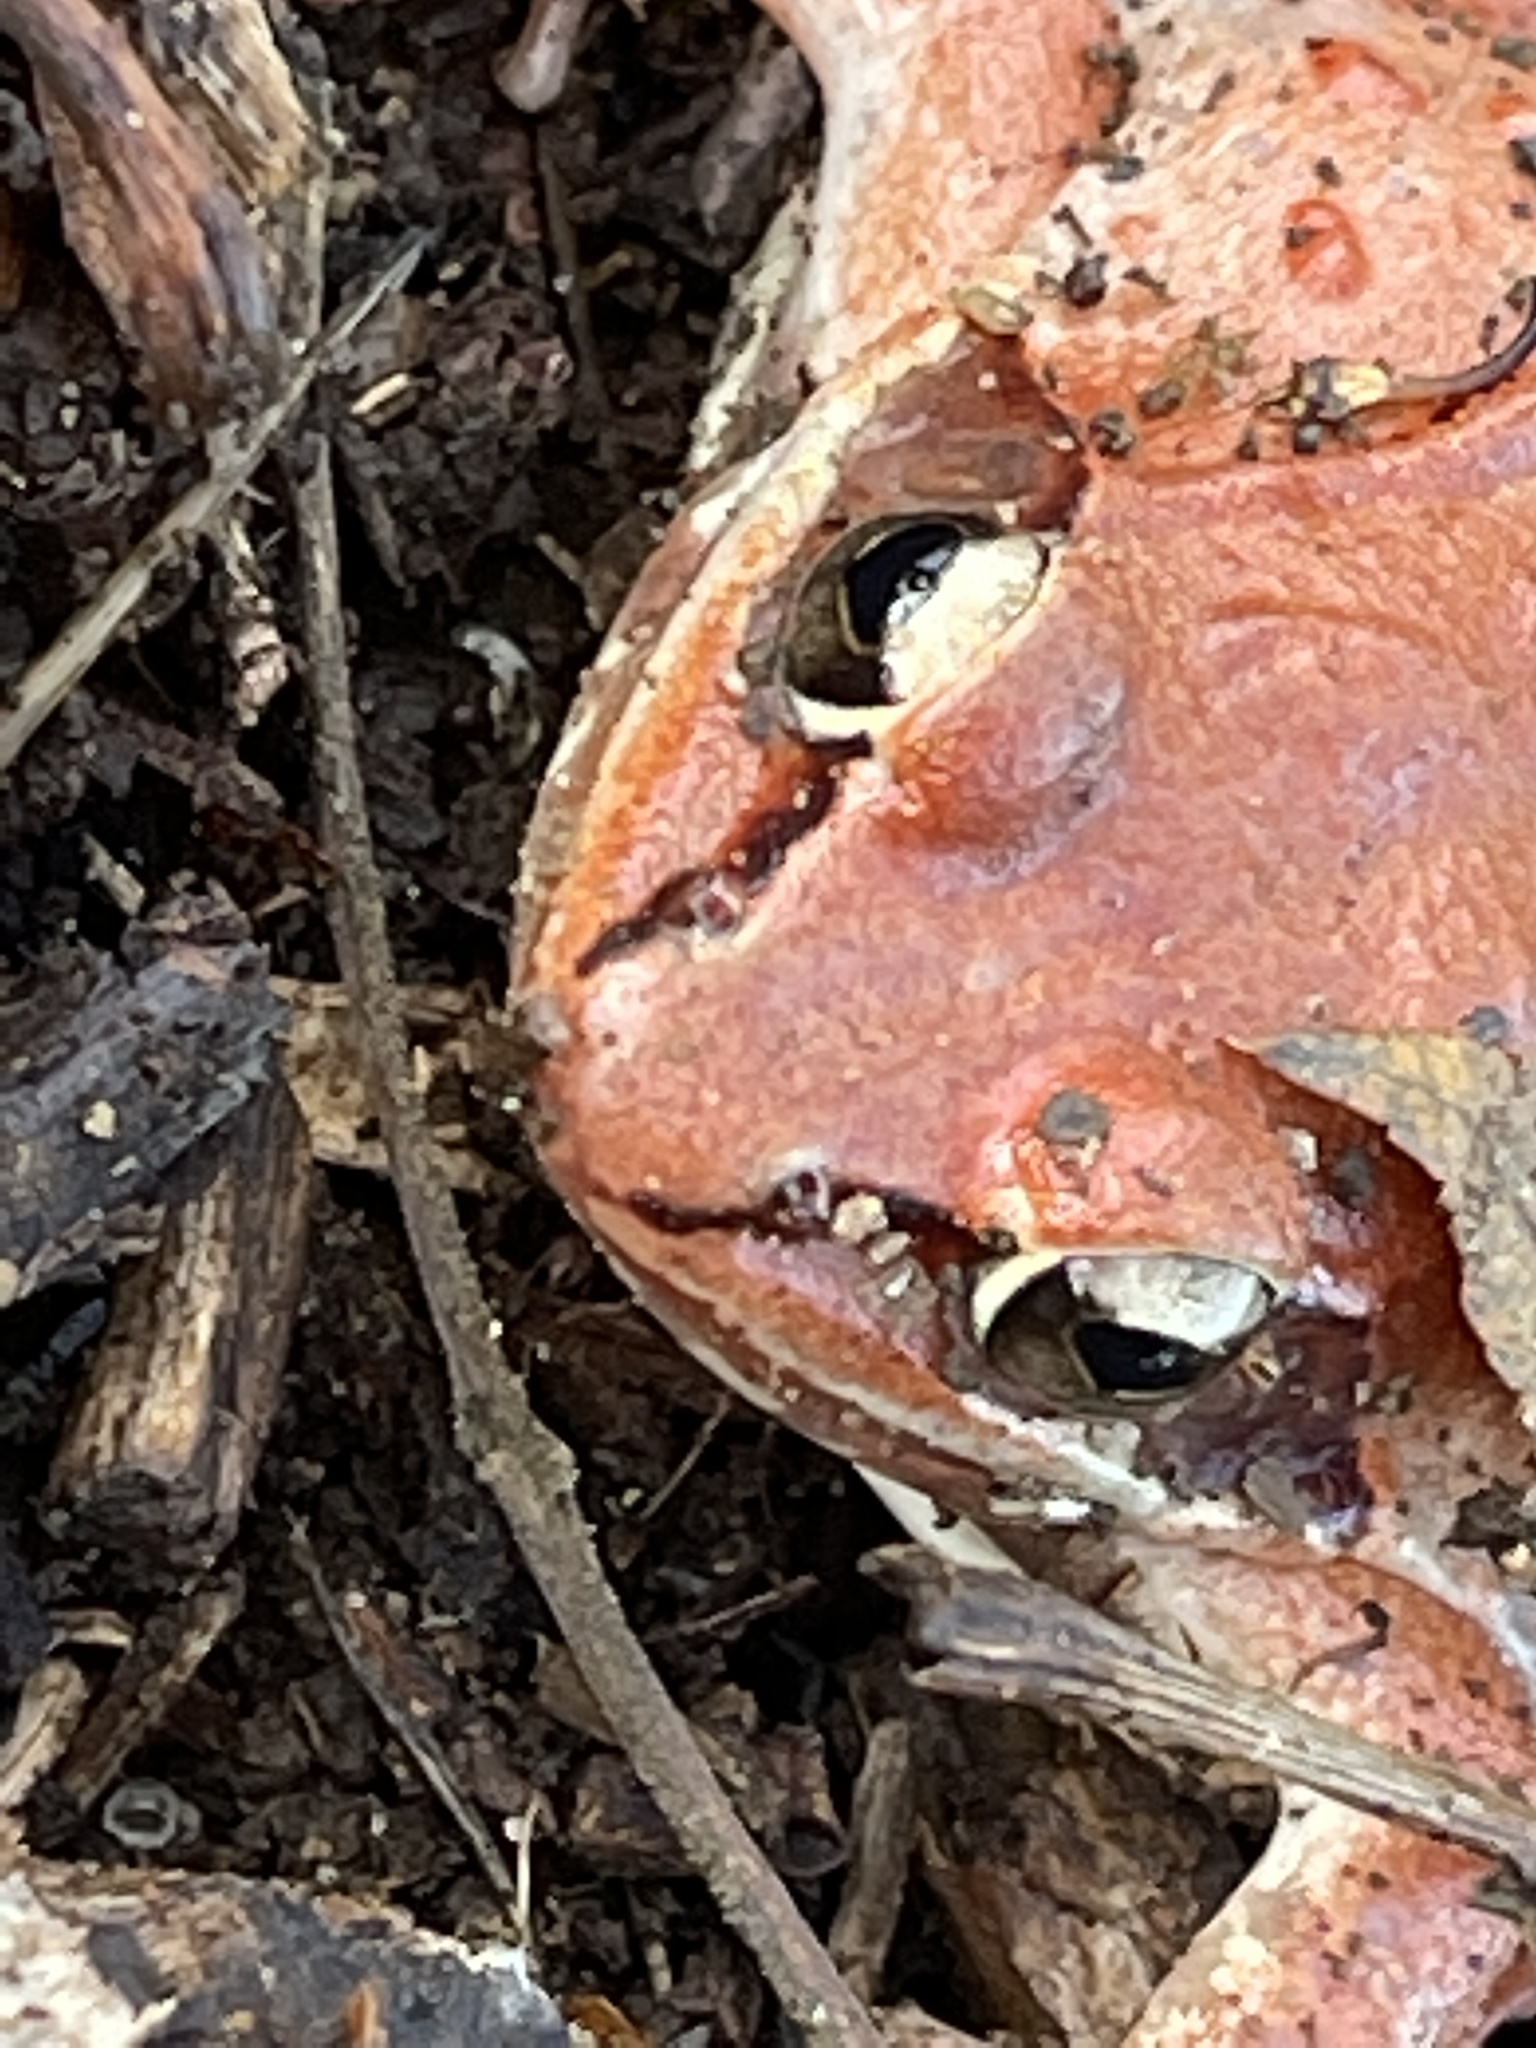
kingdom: Animalia
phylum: Chordata
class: Amphibia
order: Anura
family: Ranidae
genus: Lithobates
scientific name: Lithobates sylvaticus
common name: Wood frog
